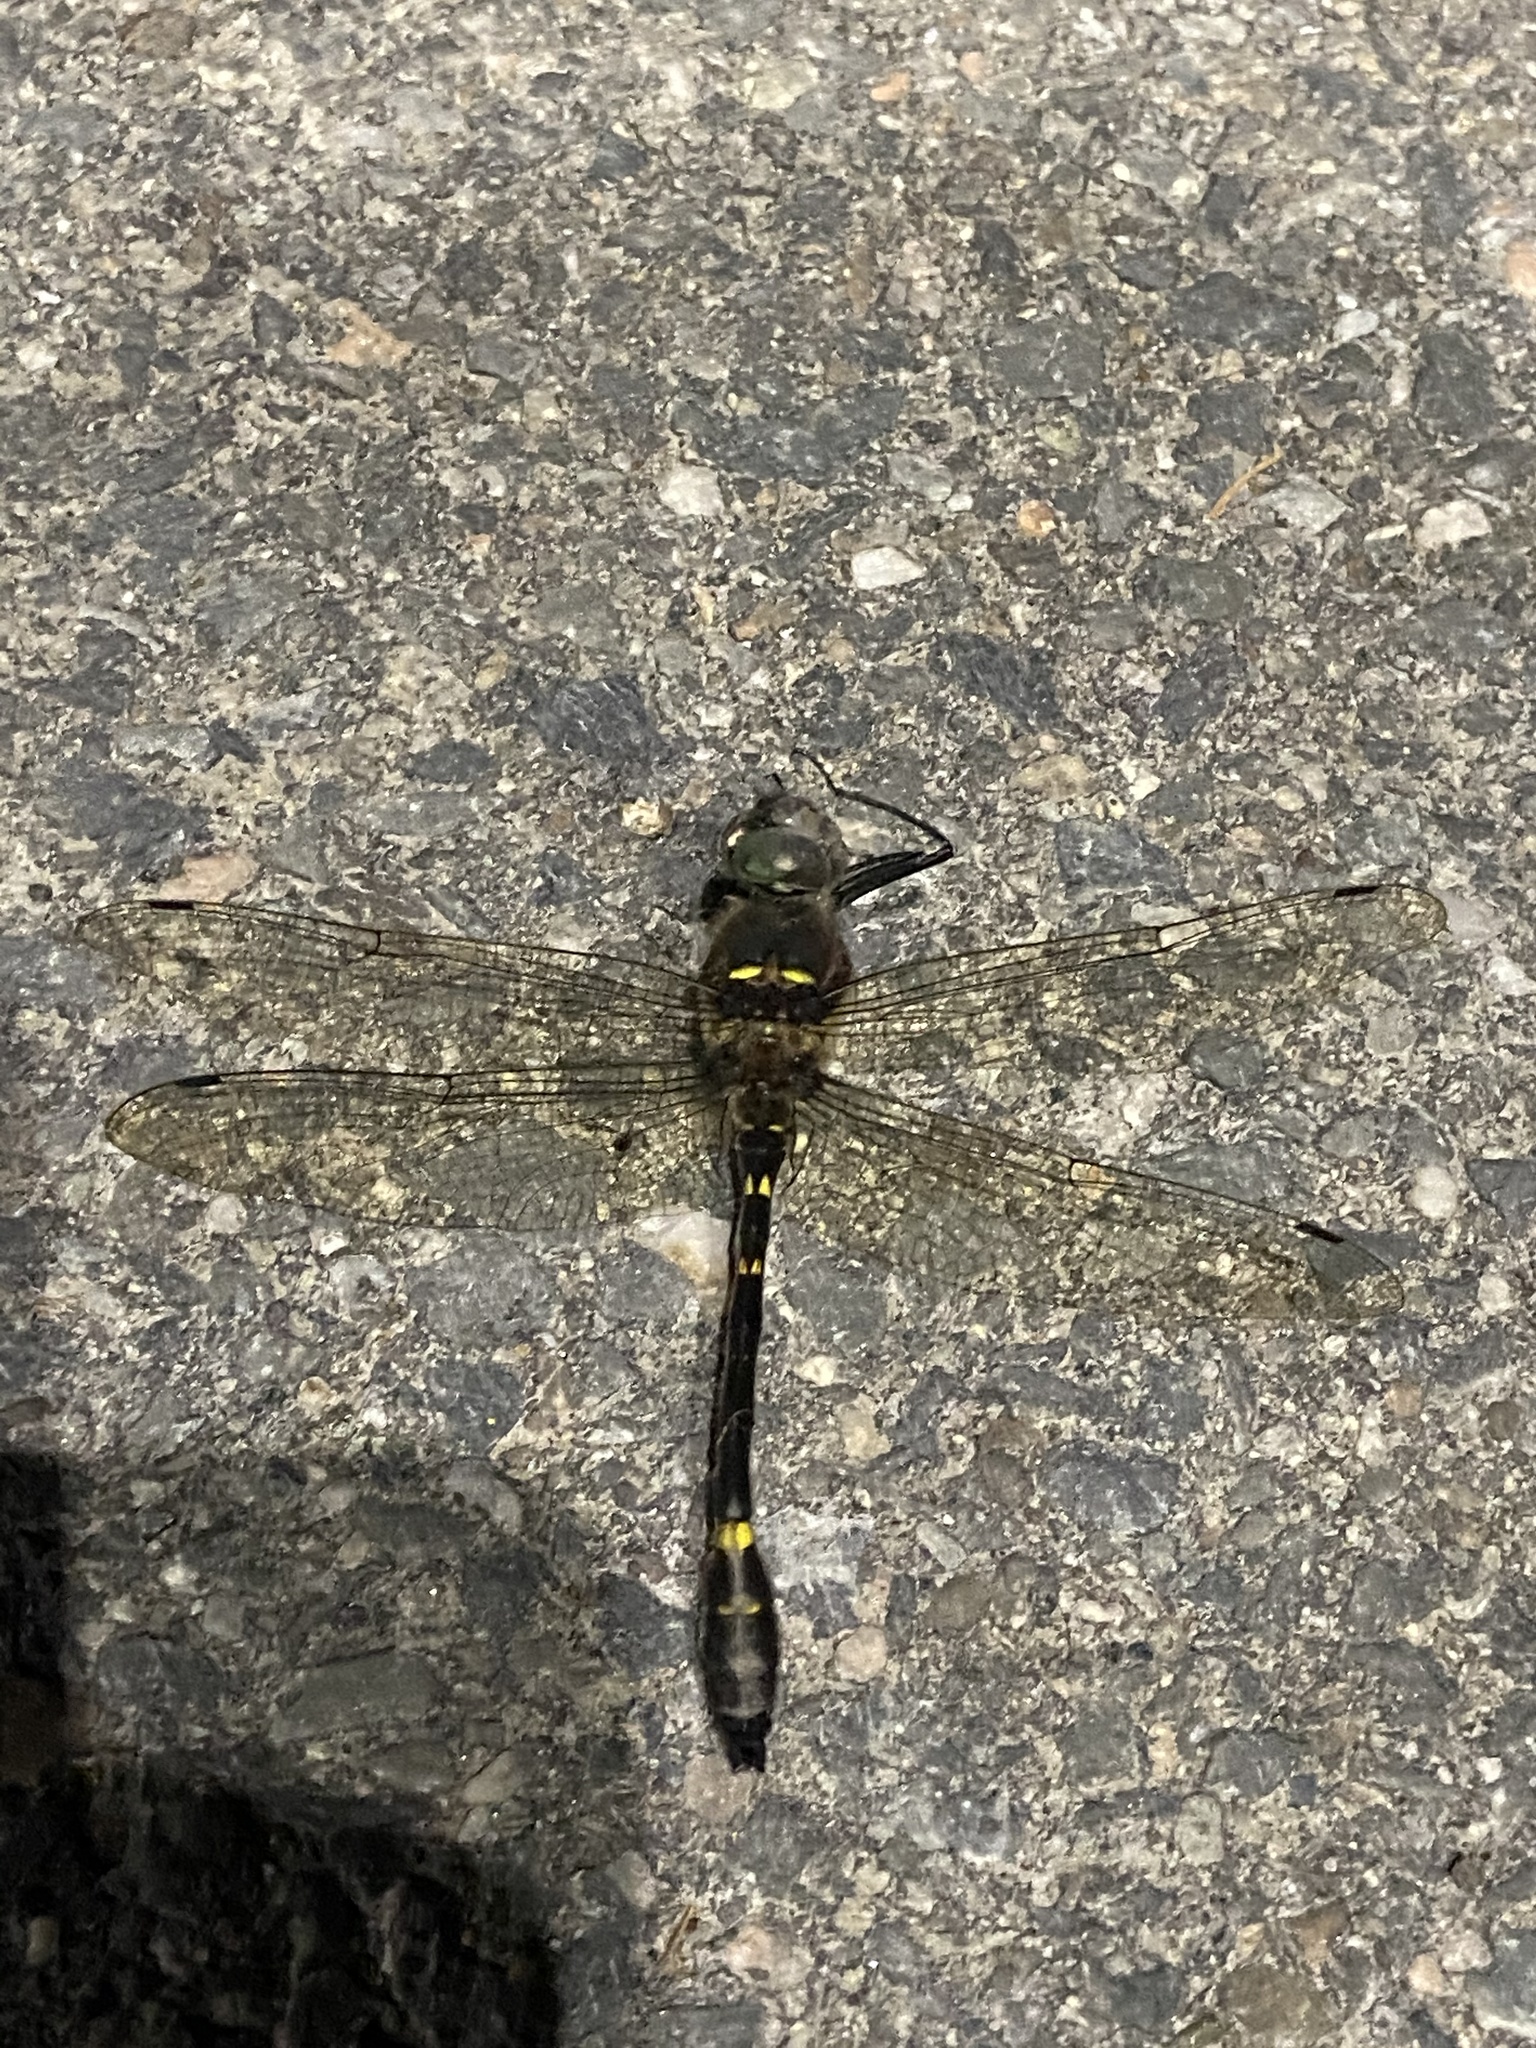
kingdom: Animalia
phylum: Arthropoda
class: Insecta
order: Odonata
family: Macromiidae
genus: Macromia
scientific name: Macromia illinoiensis
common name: Swift river cruiser
